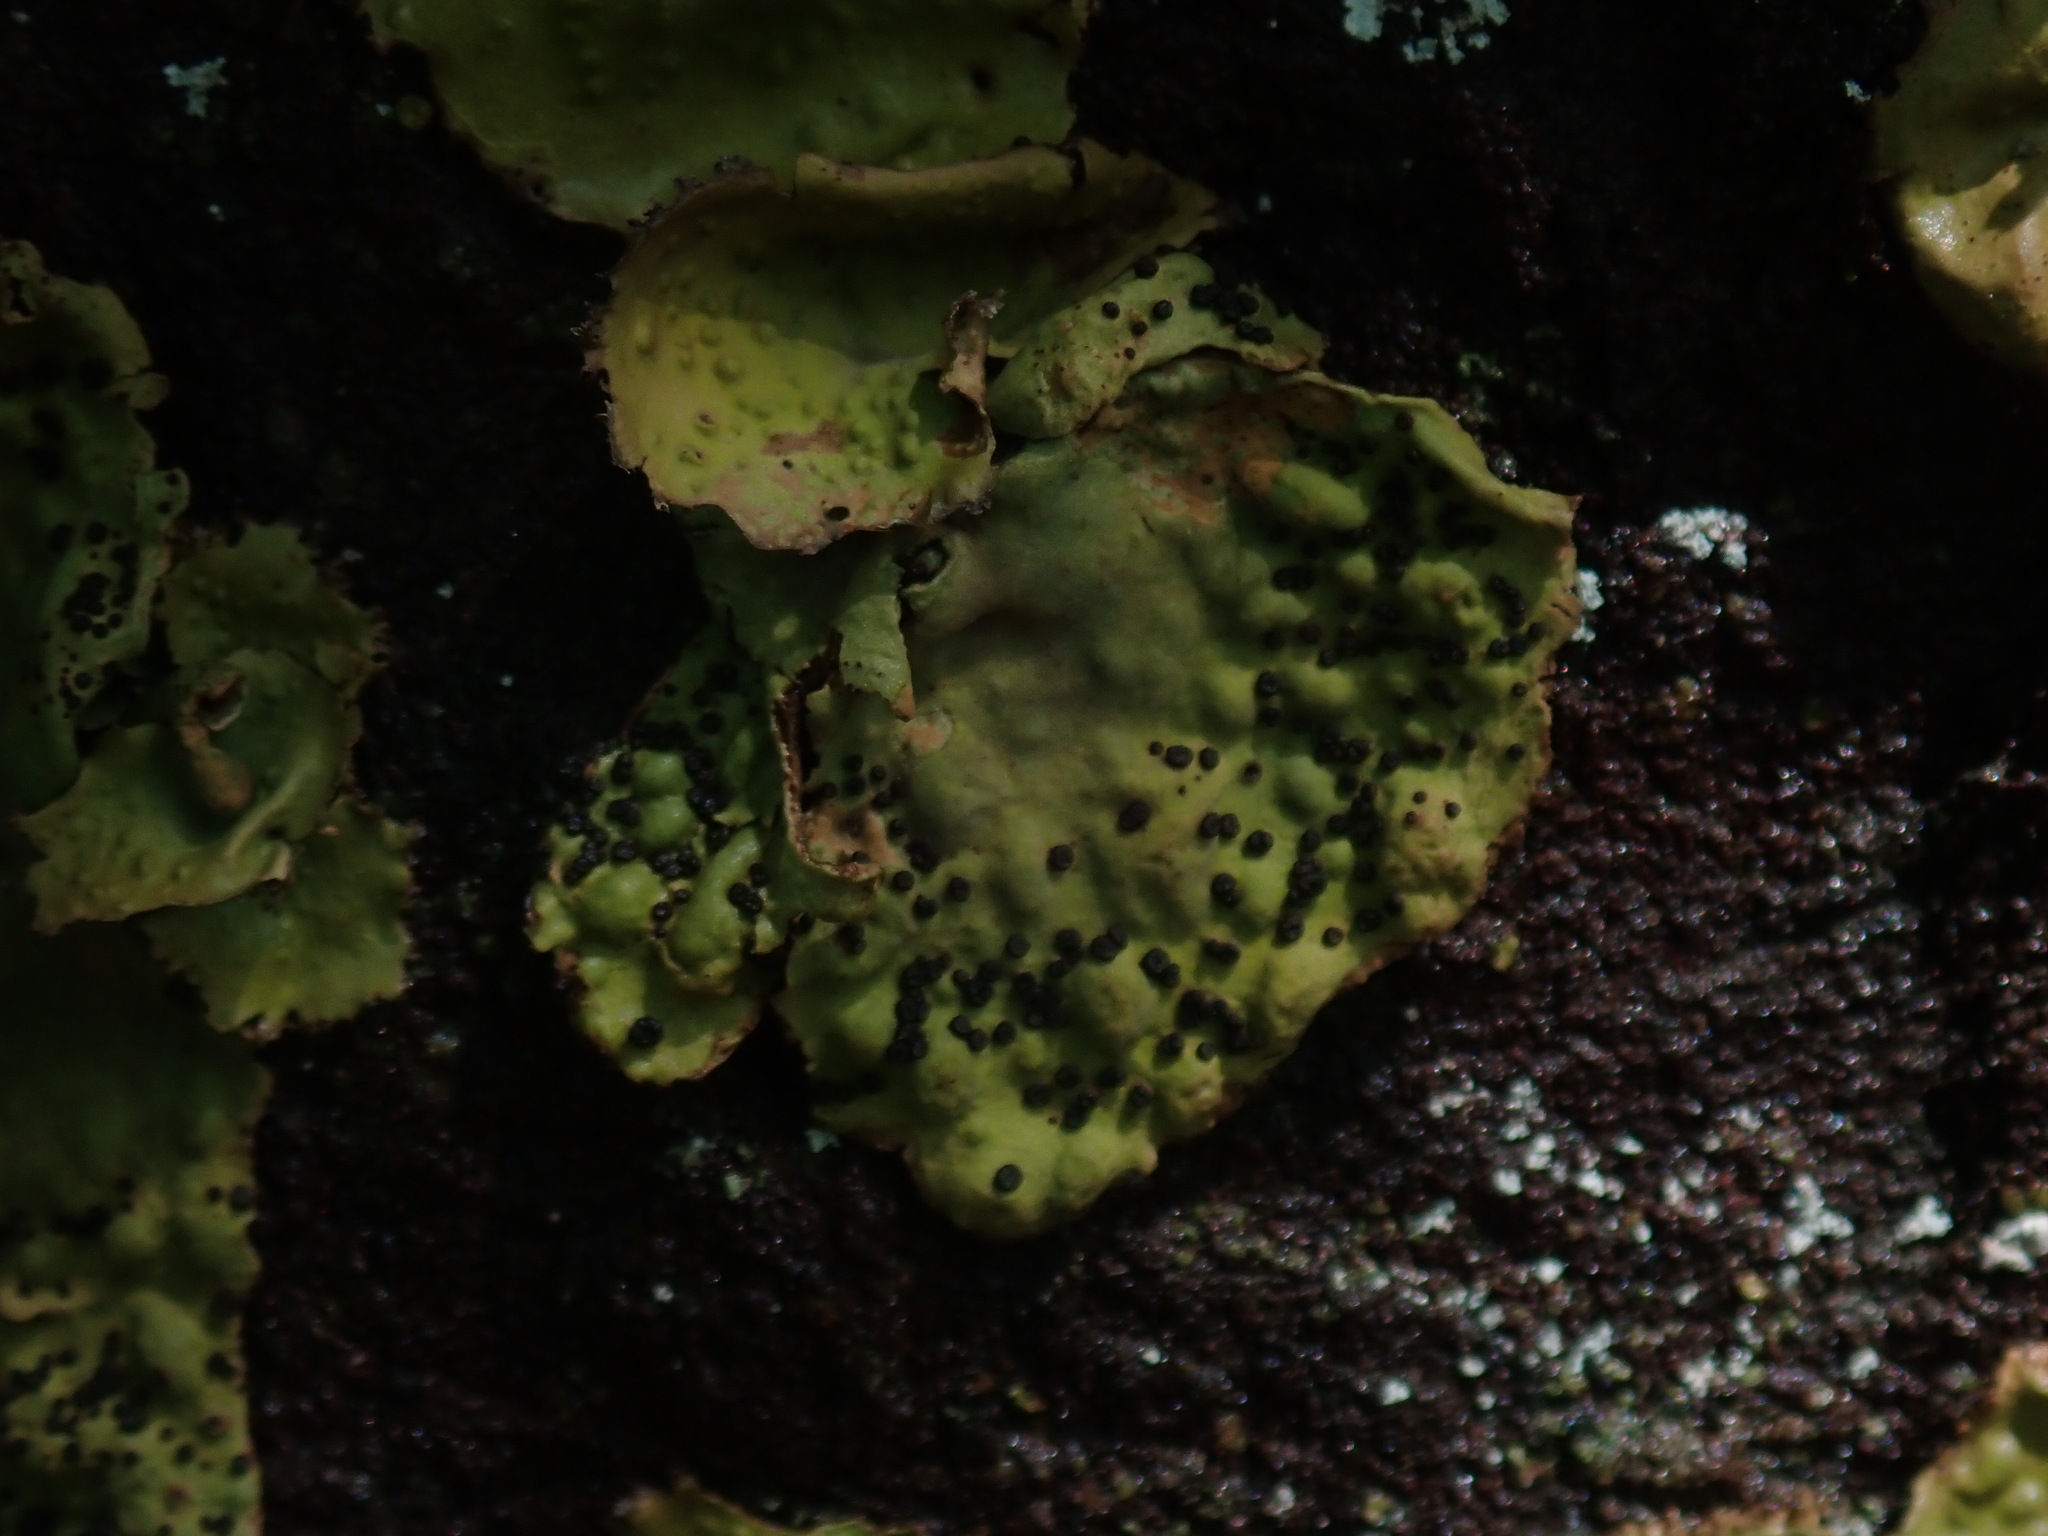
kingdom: Fungi
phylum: Ascomycota
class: Lecanoromycetes
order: Umbilicariales
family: Umbilicariaceae
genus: Lasallia
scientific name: Lasallia papulosa
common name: Common toadskin lichen
